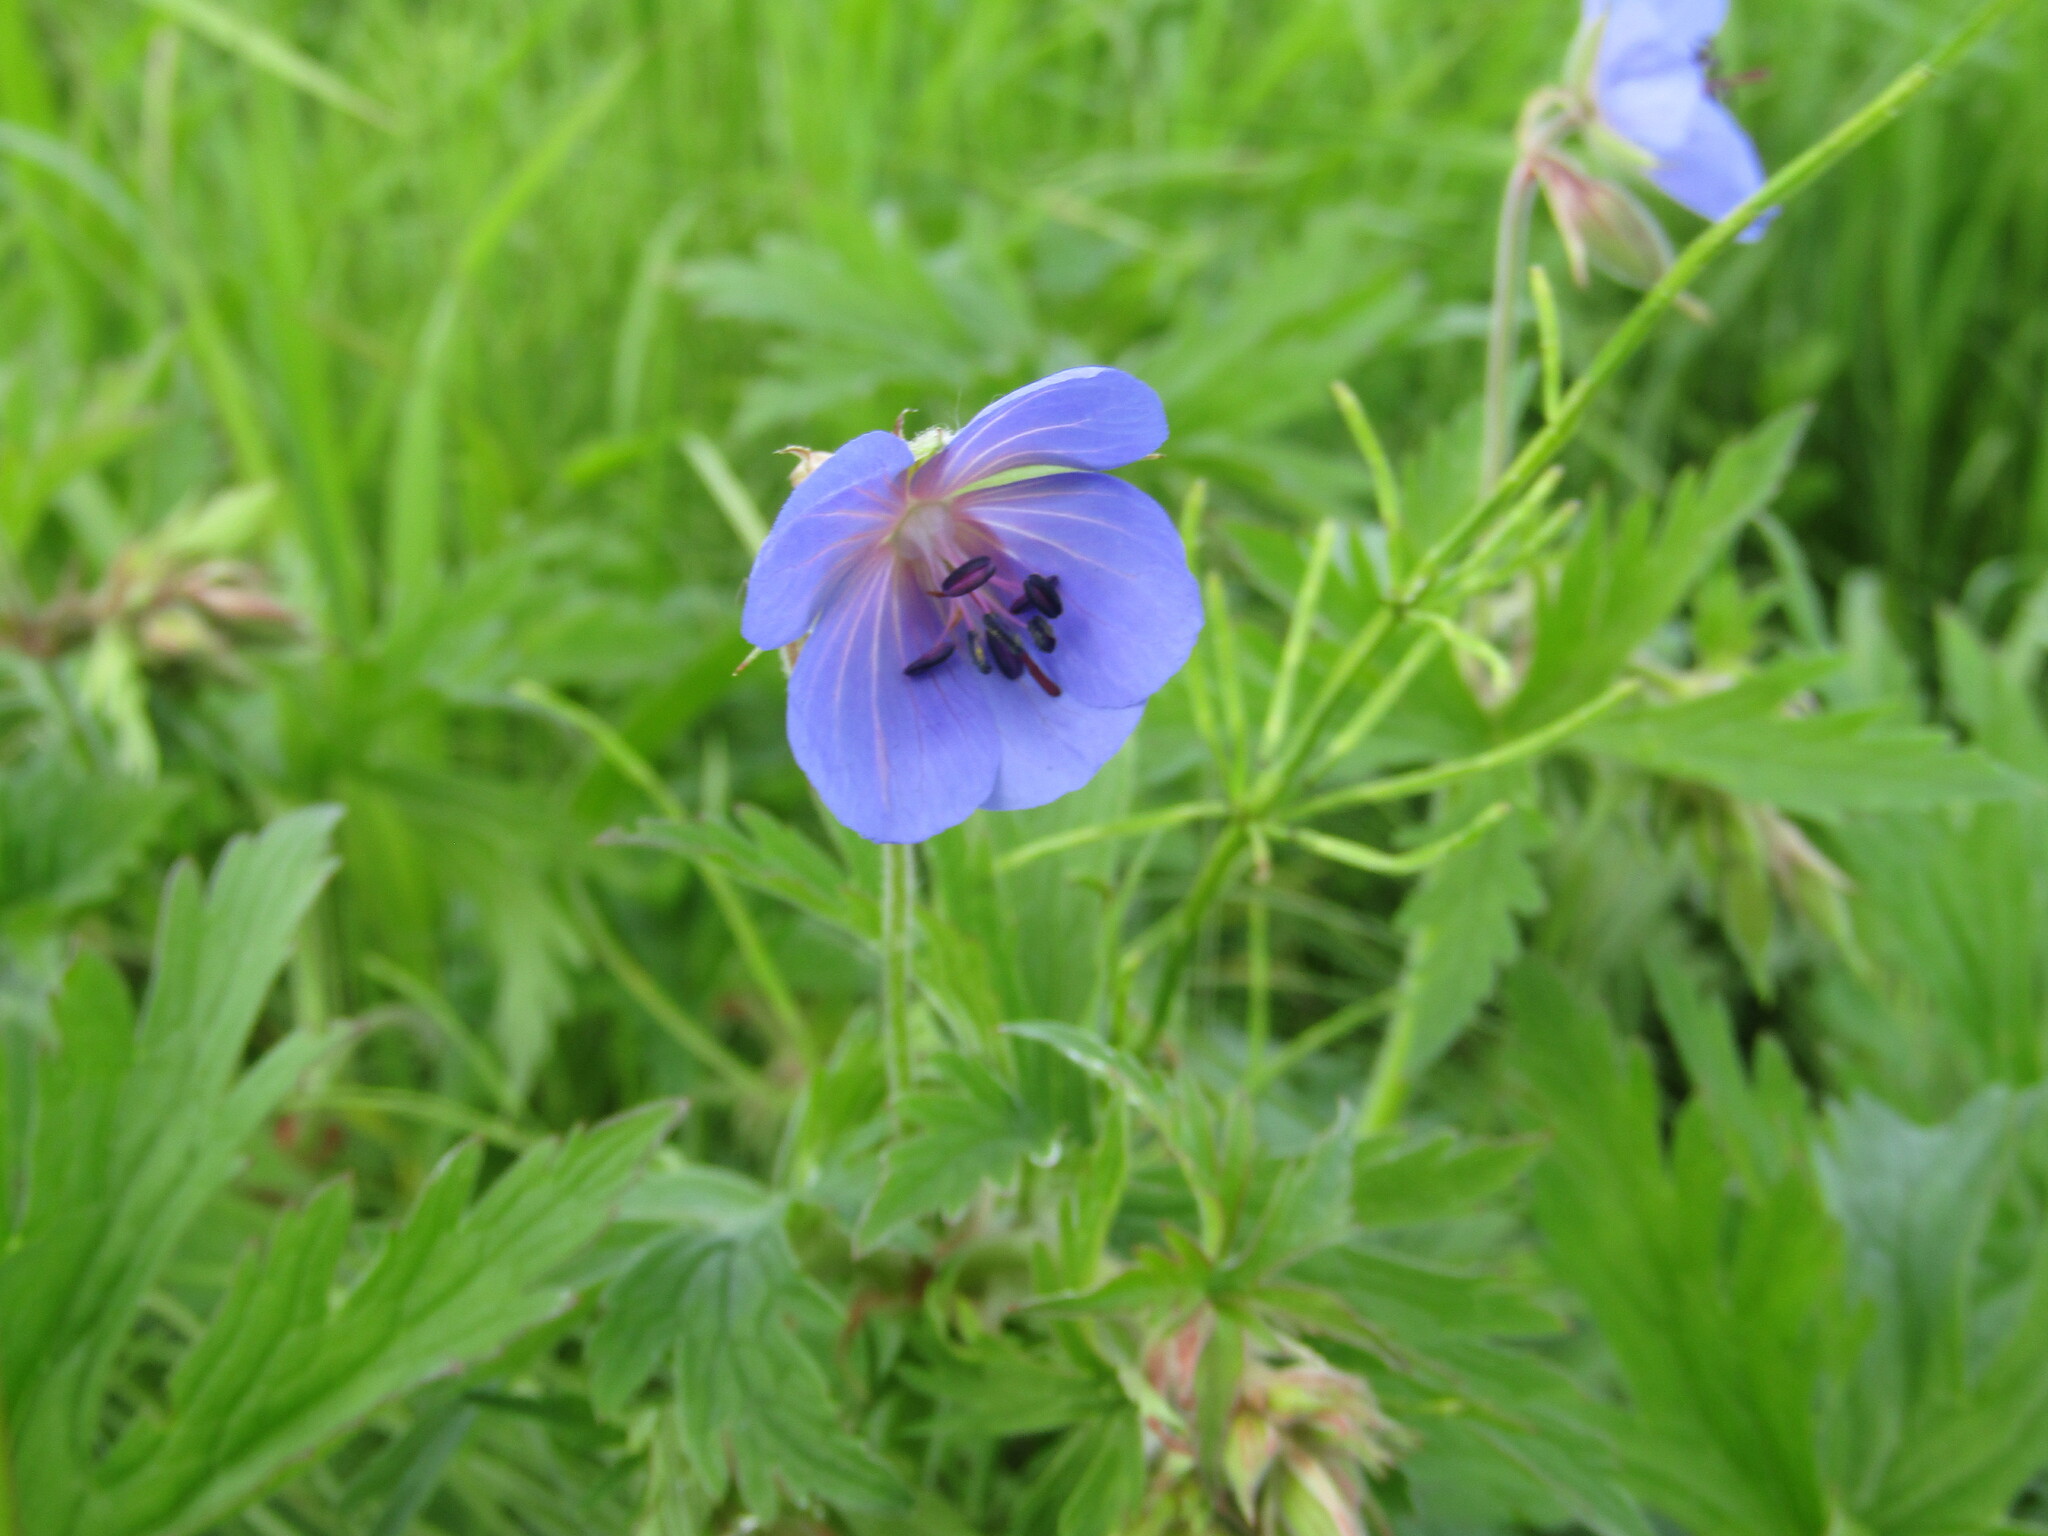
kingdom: Plantae
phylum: Tracheophyta
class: Magnoliopsida
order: Geraniales
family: Geraniaceae
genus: Geranium
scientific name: Geranium pratense
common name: Meadow crane's-bill
